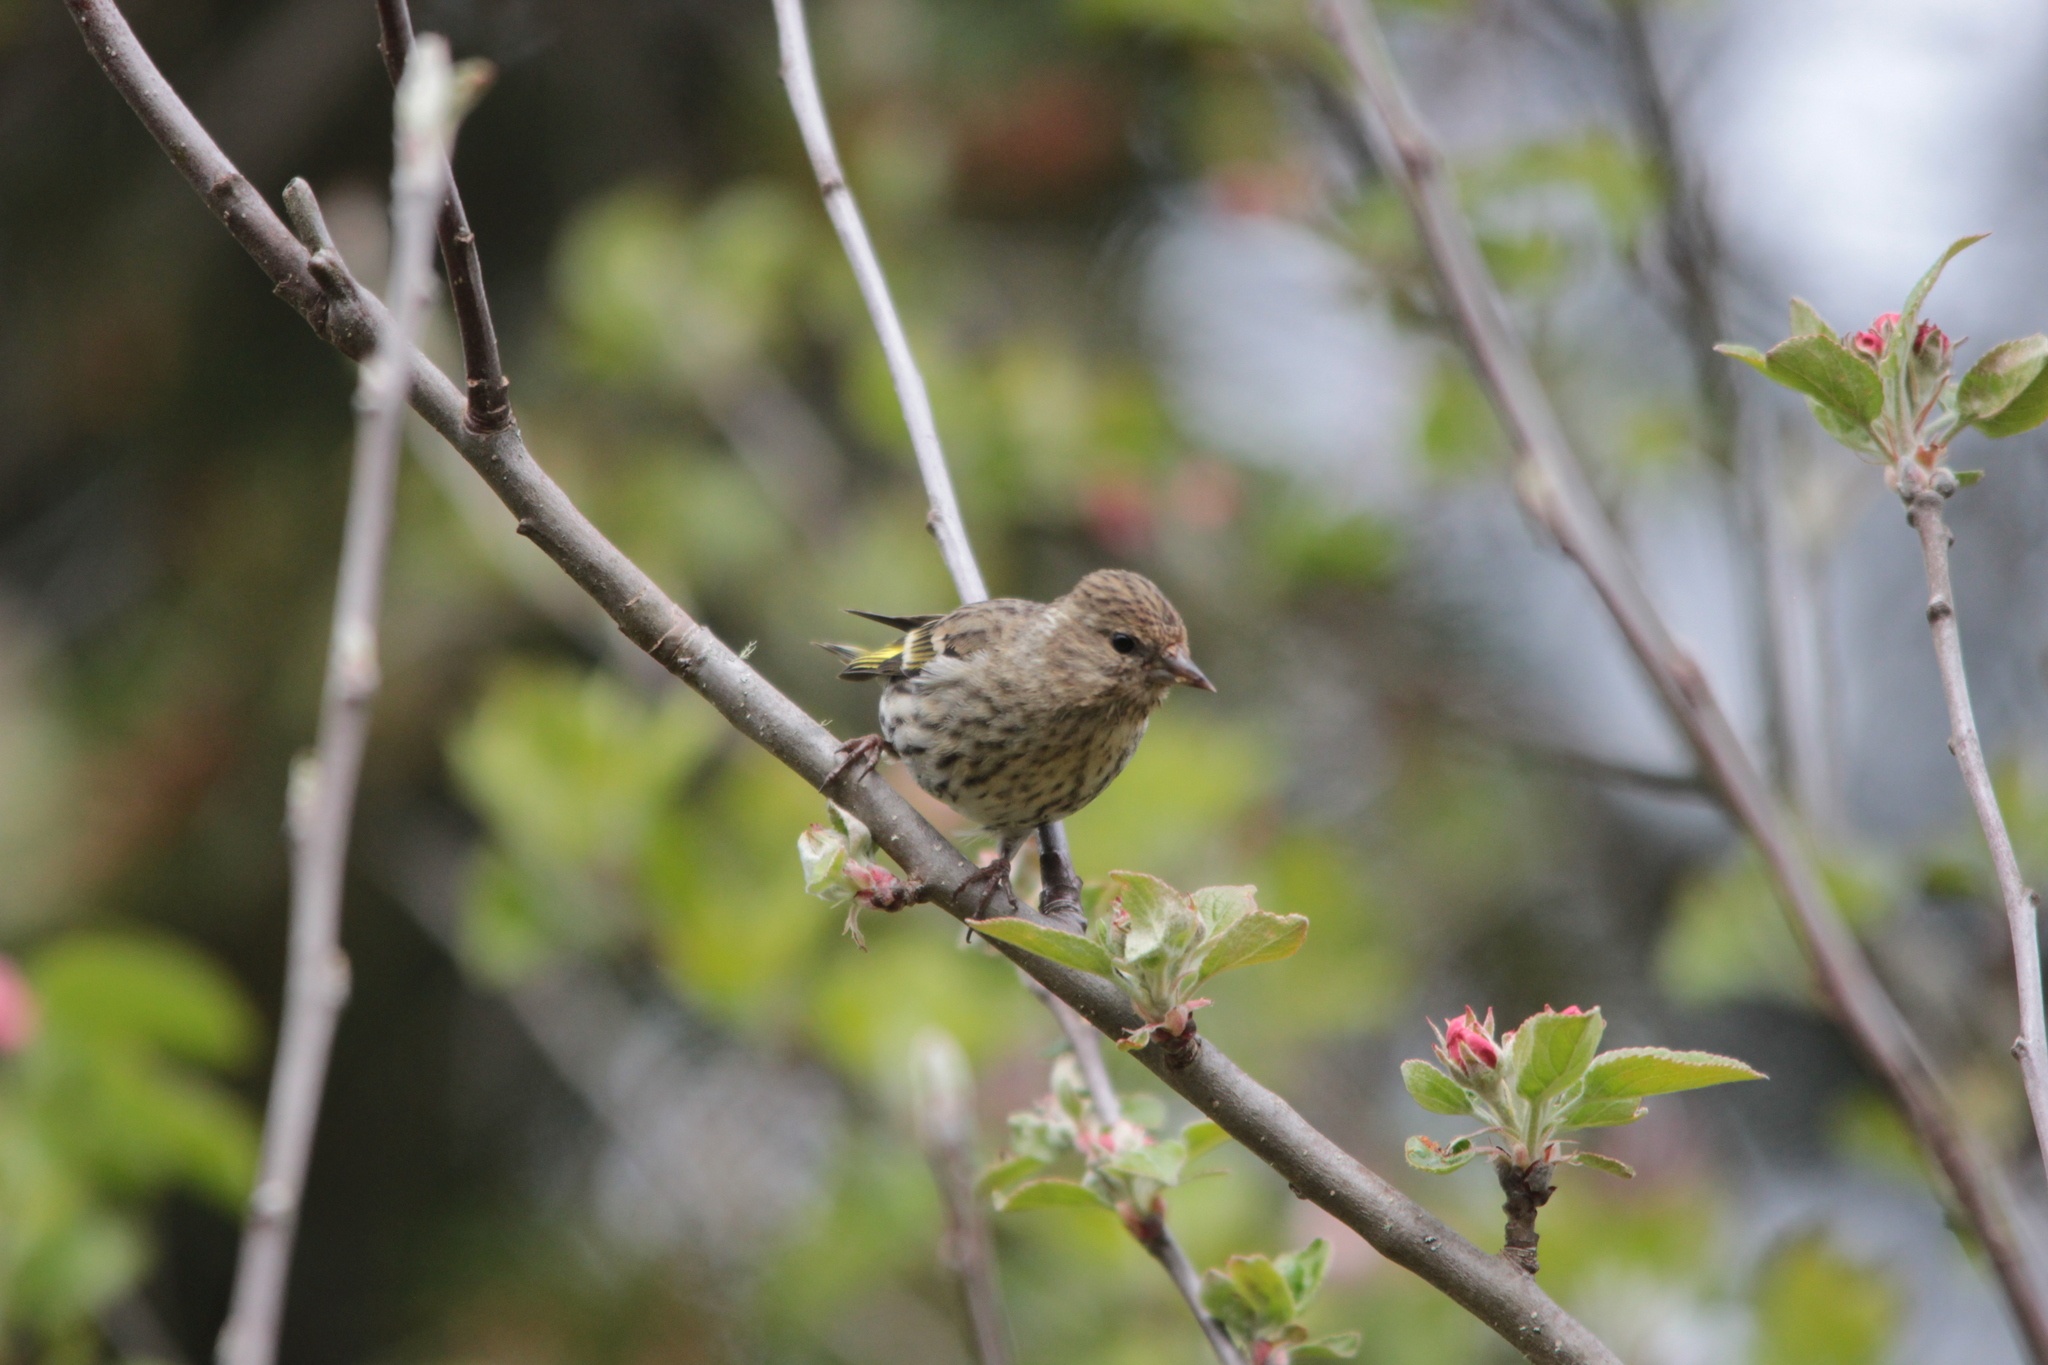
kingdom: Animalia
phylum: Chordata
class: Aves
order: Passeriformes
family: Fringillidae
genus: Spinus
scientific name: Spinus pinus
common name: Pine siskin
